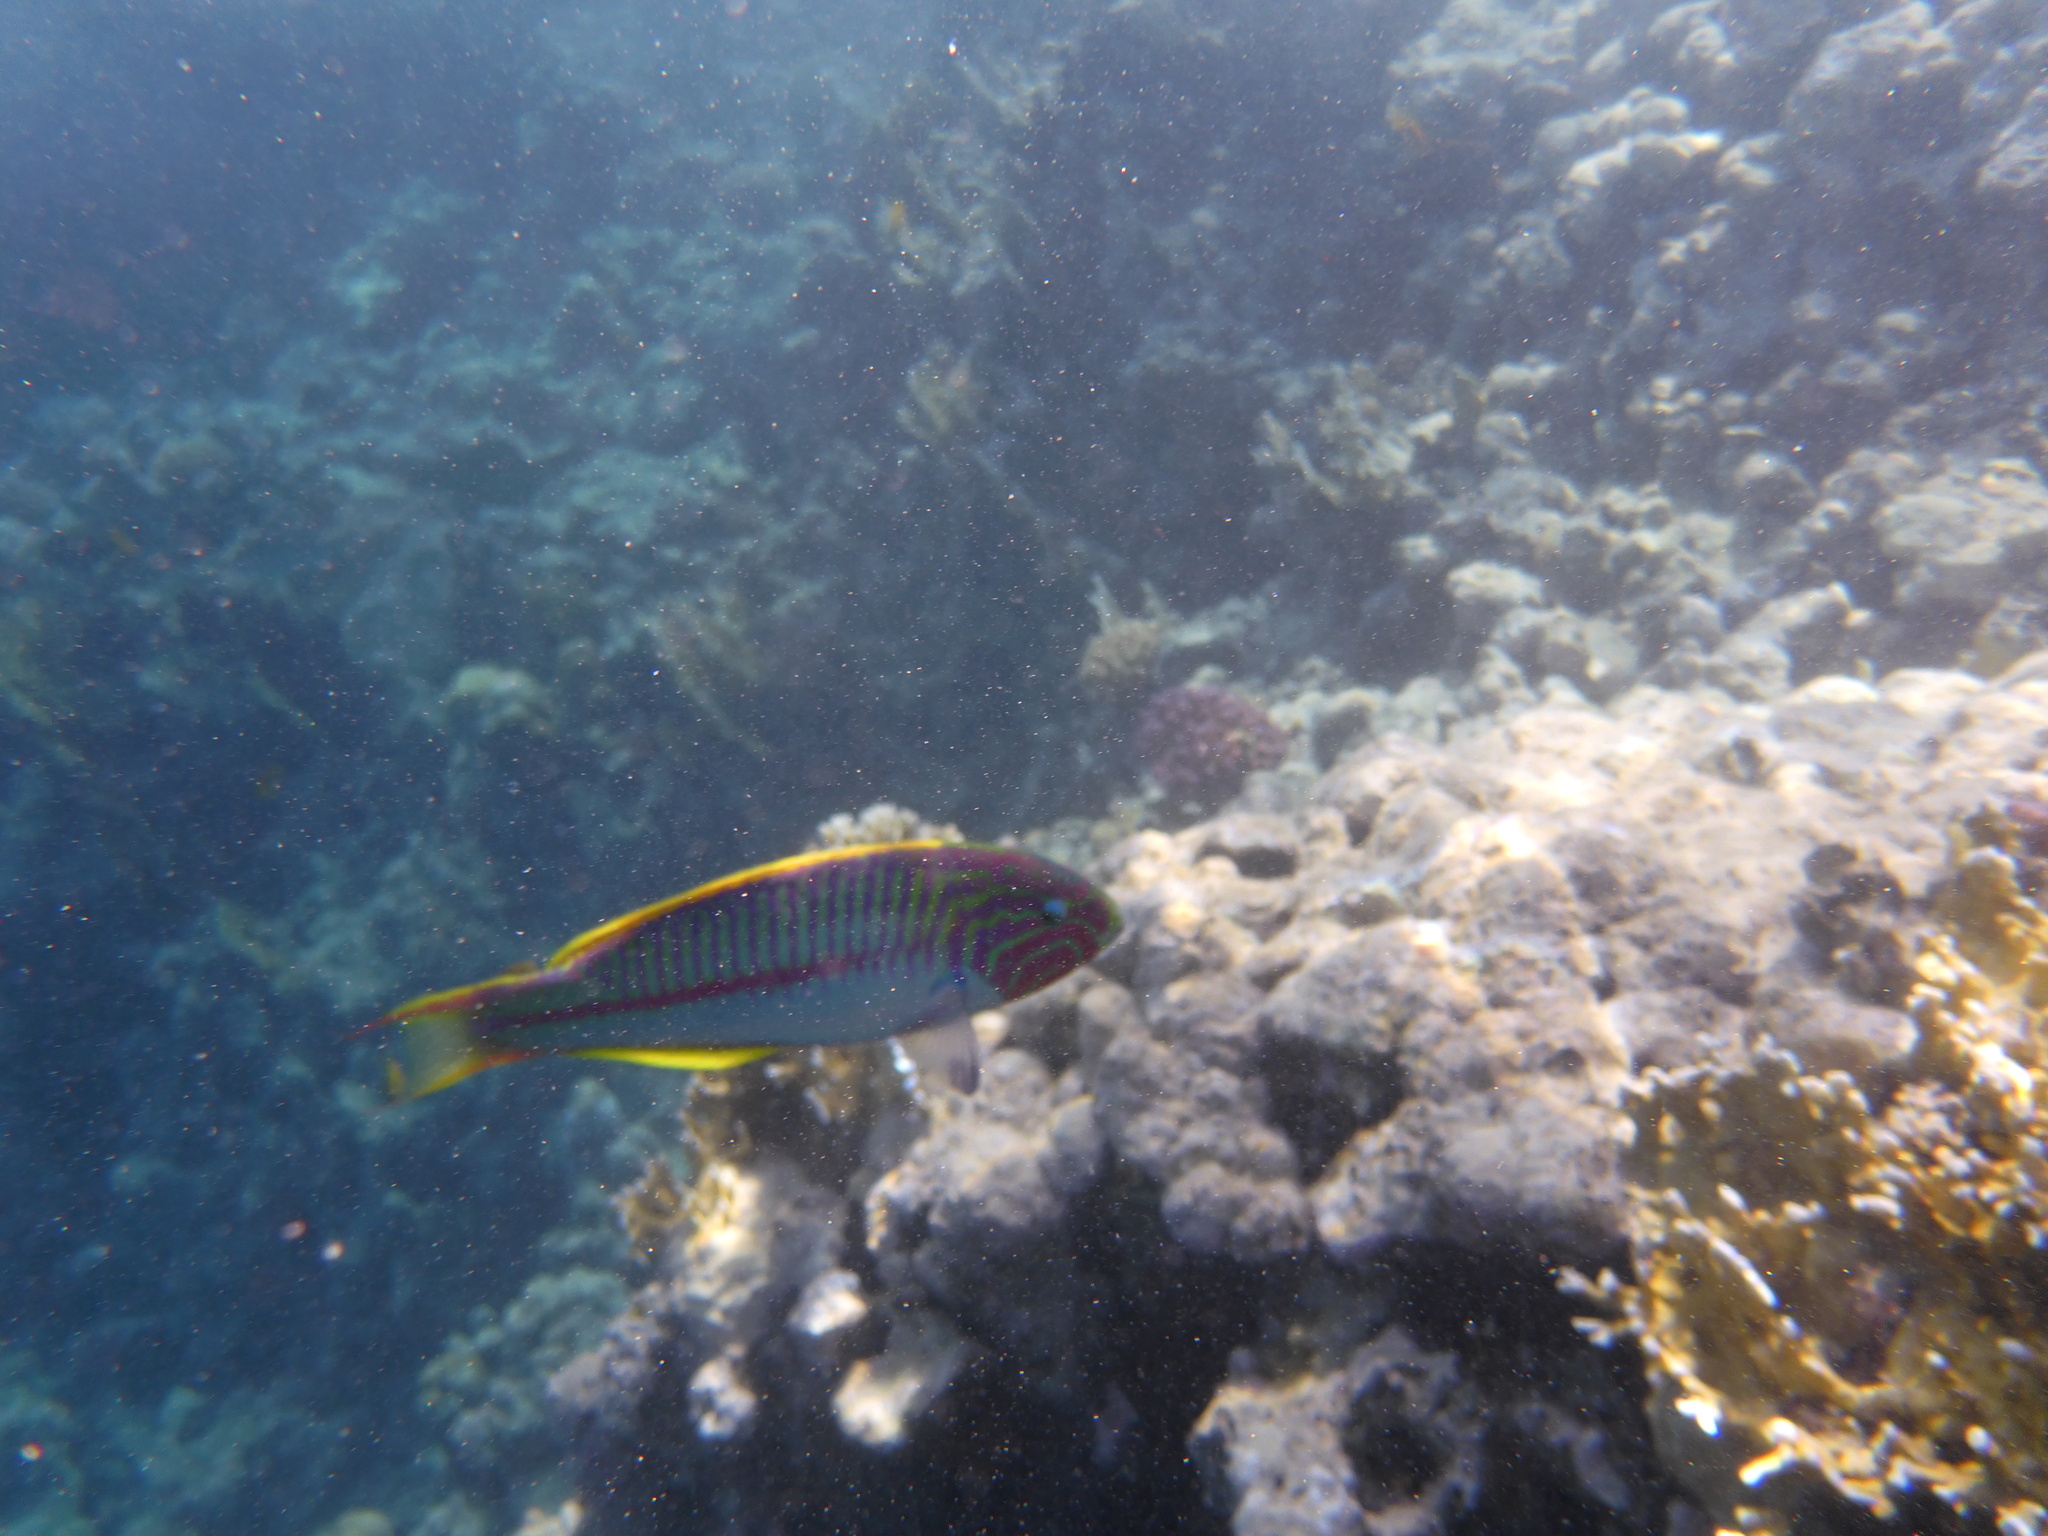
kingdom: Animalia
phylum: Chordata
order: Perciformes
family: Labridae
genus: Thalassoma
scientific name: Thalassoma rueppellii
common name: Klunzinger's wrasse
